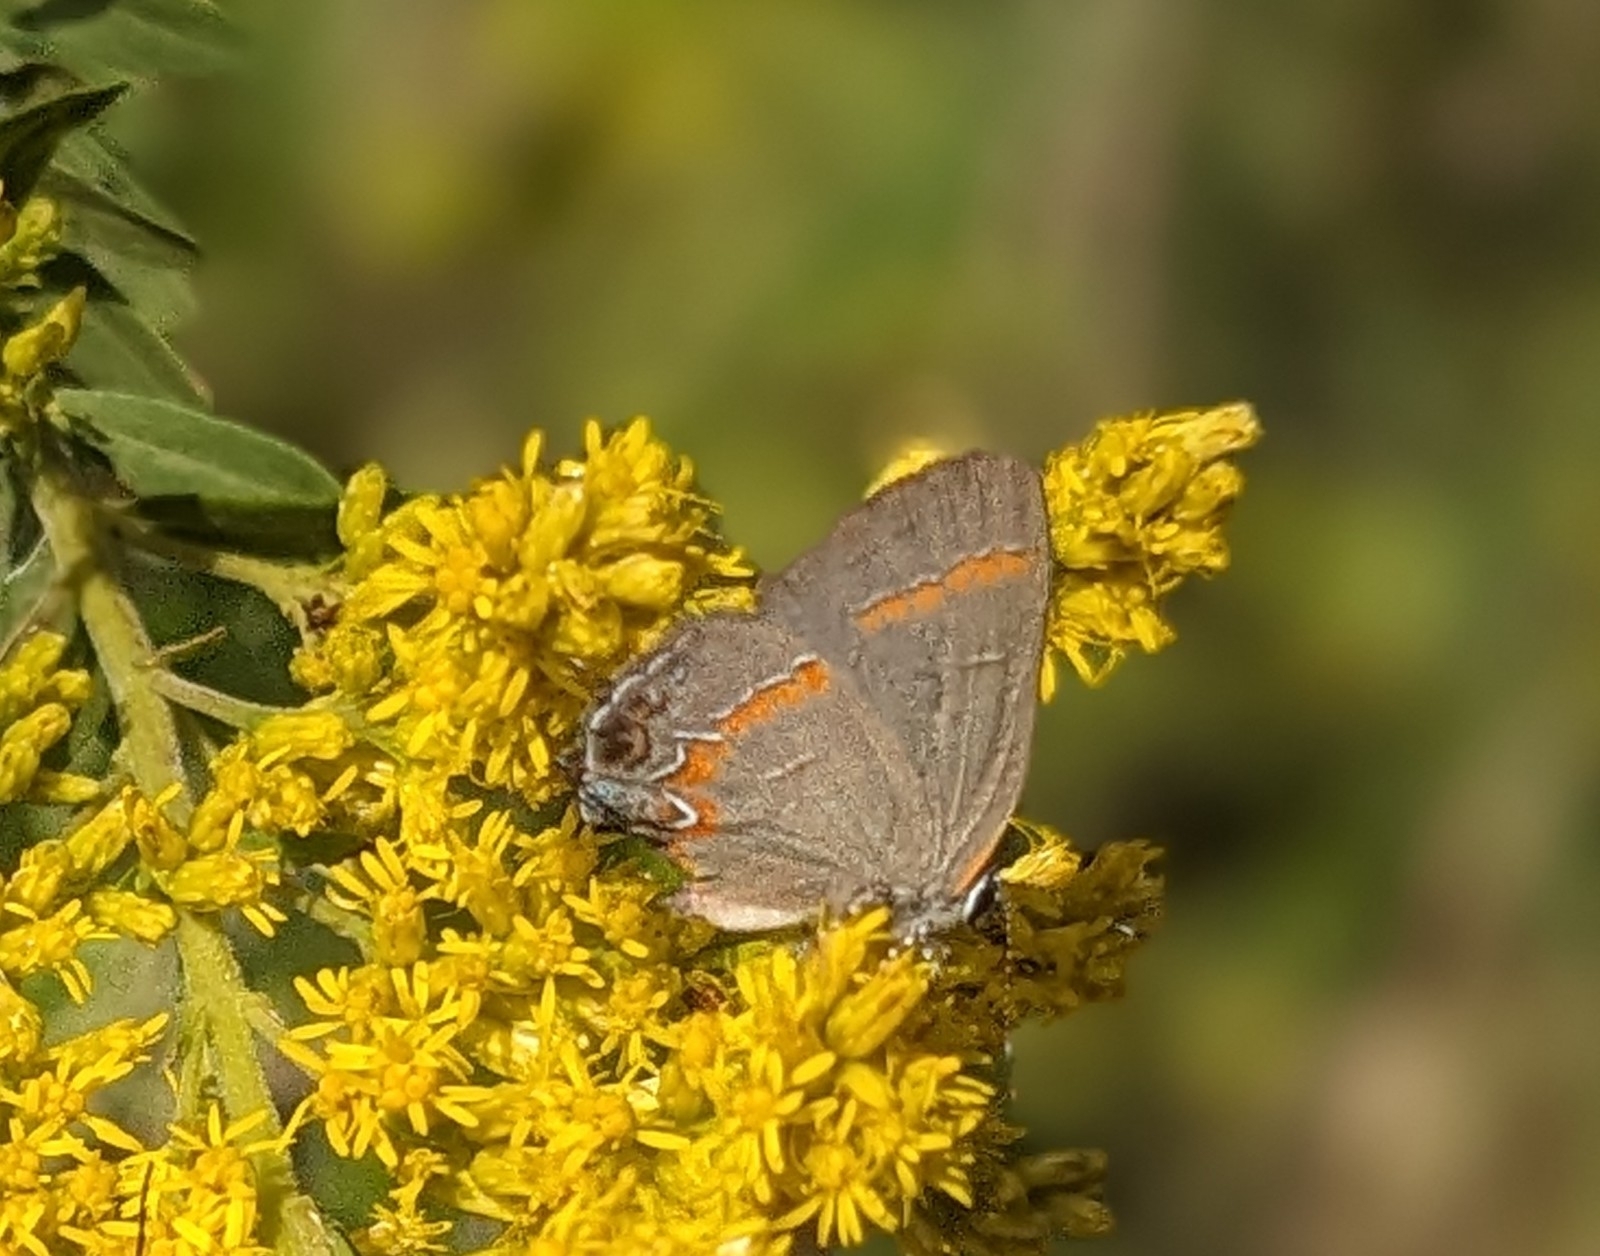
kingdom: Animalia
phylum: Arthropoda
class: Insecta
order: Lepidoptera
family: Lycaenidae
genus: Calycopis
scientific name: Calycopis cecrops
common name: Red-banded hairstreak
